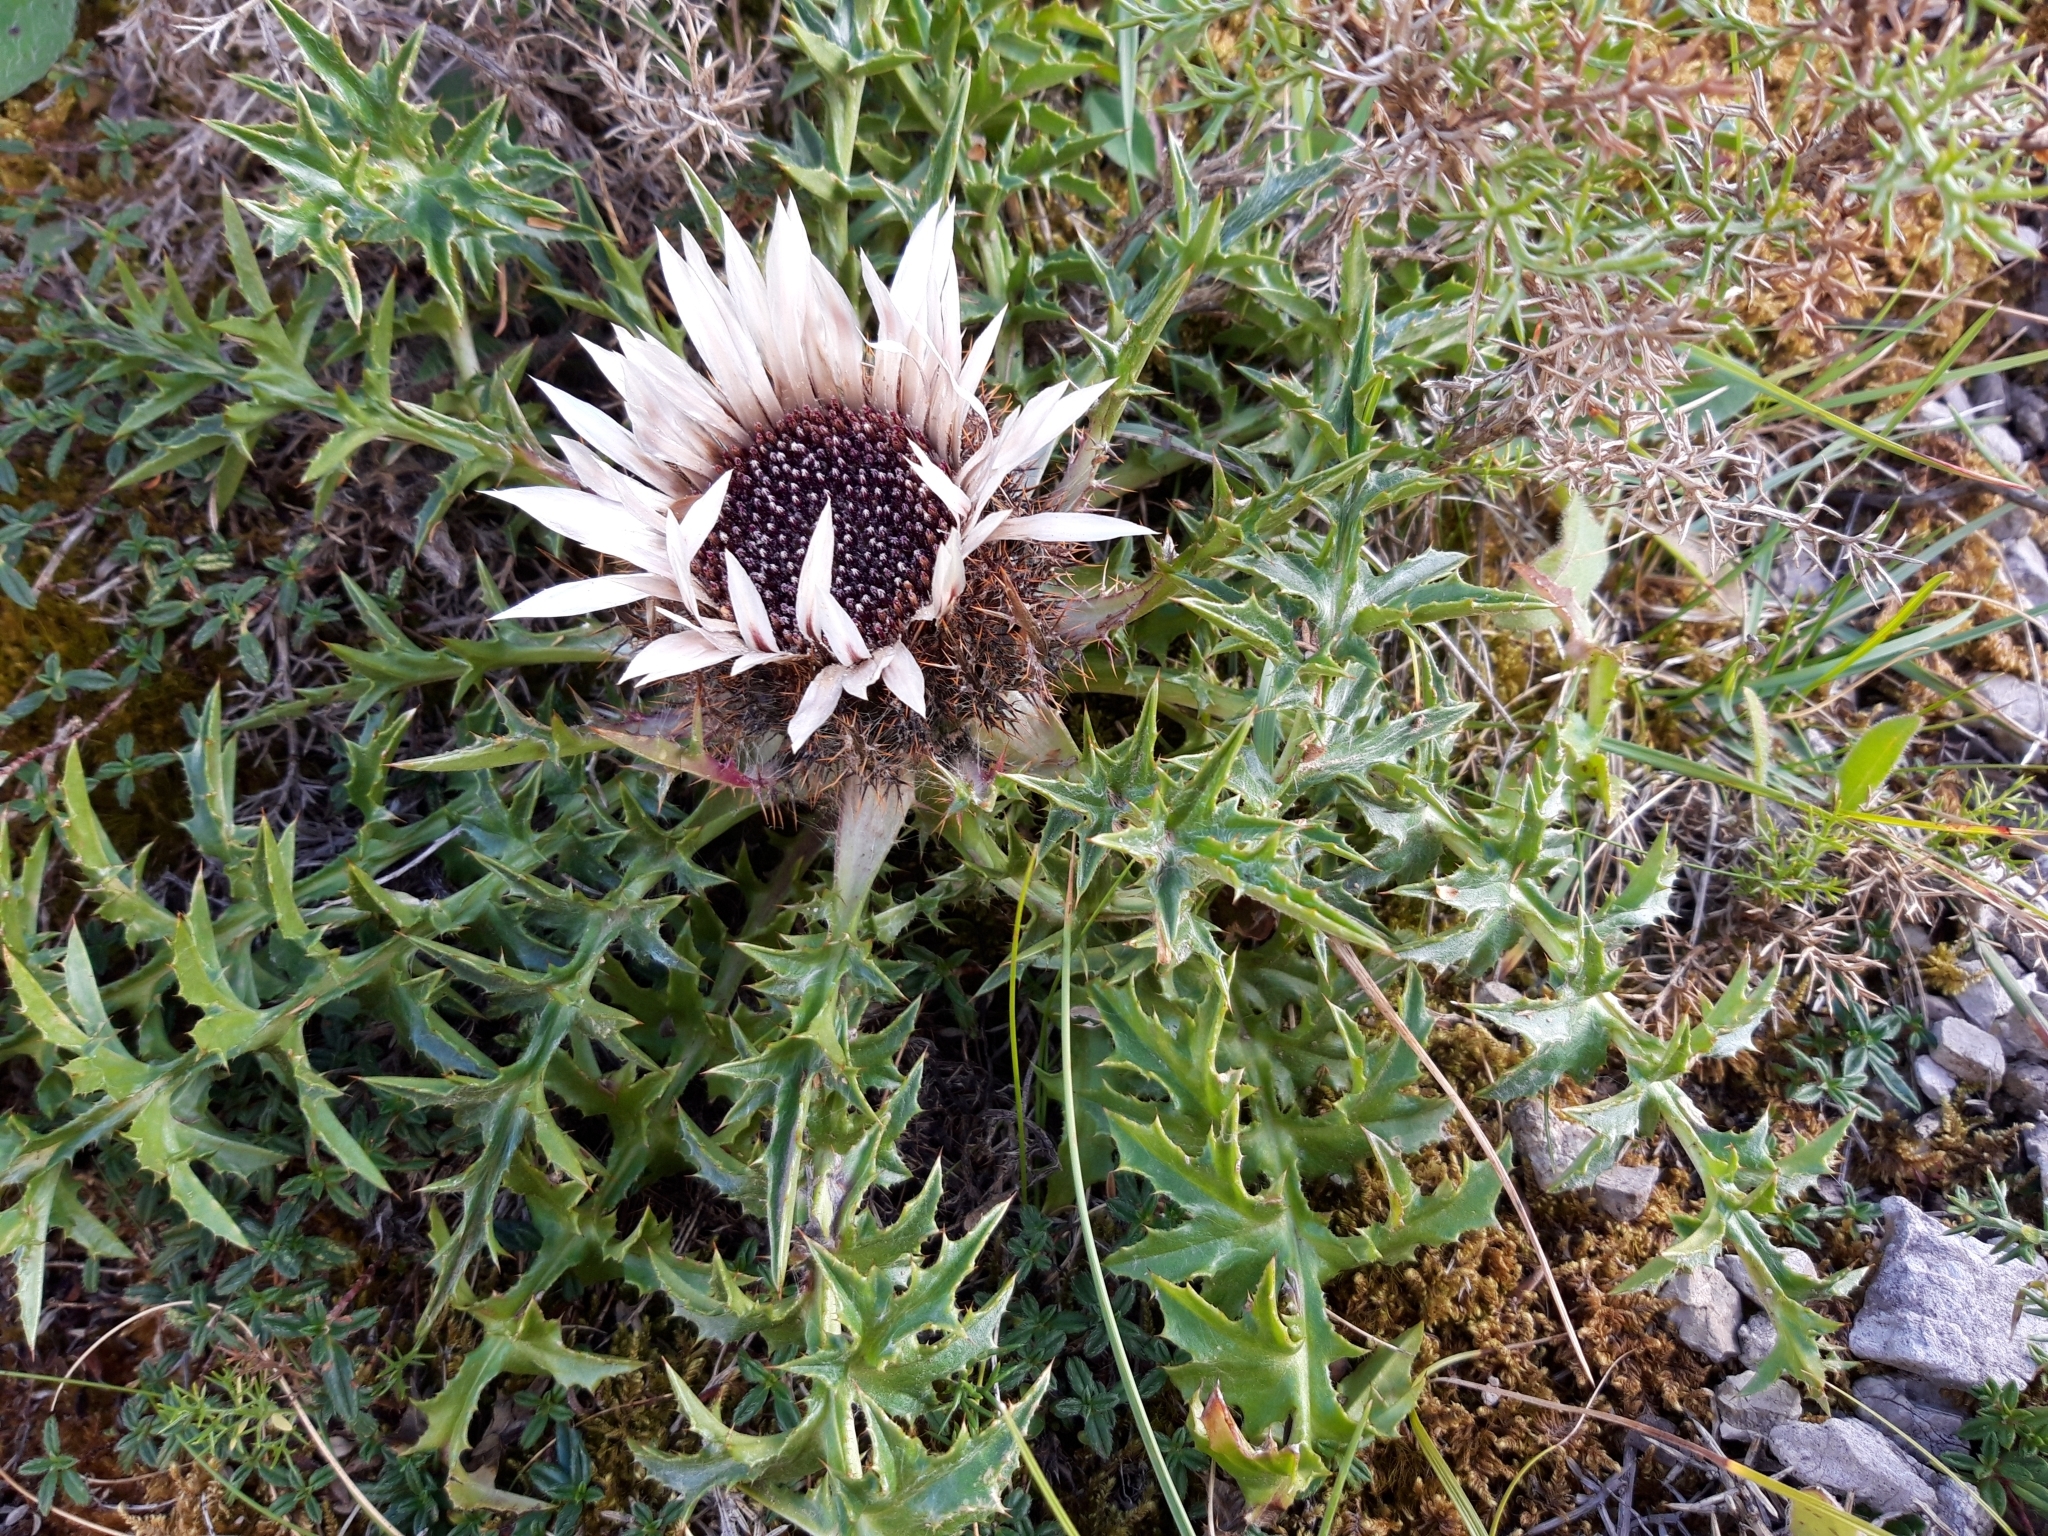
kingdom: Plantae
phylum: Tracheophyta
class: Magnoliopsida
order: Asterales
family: Asteraceae
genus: Carlina
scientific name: Carlina acaulis
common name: Stemless carline thistle
